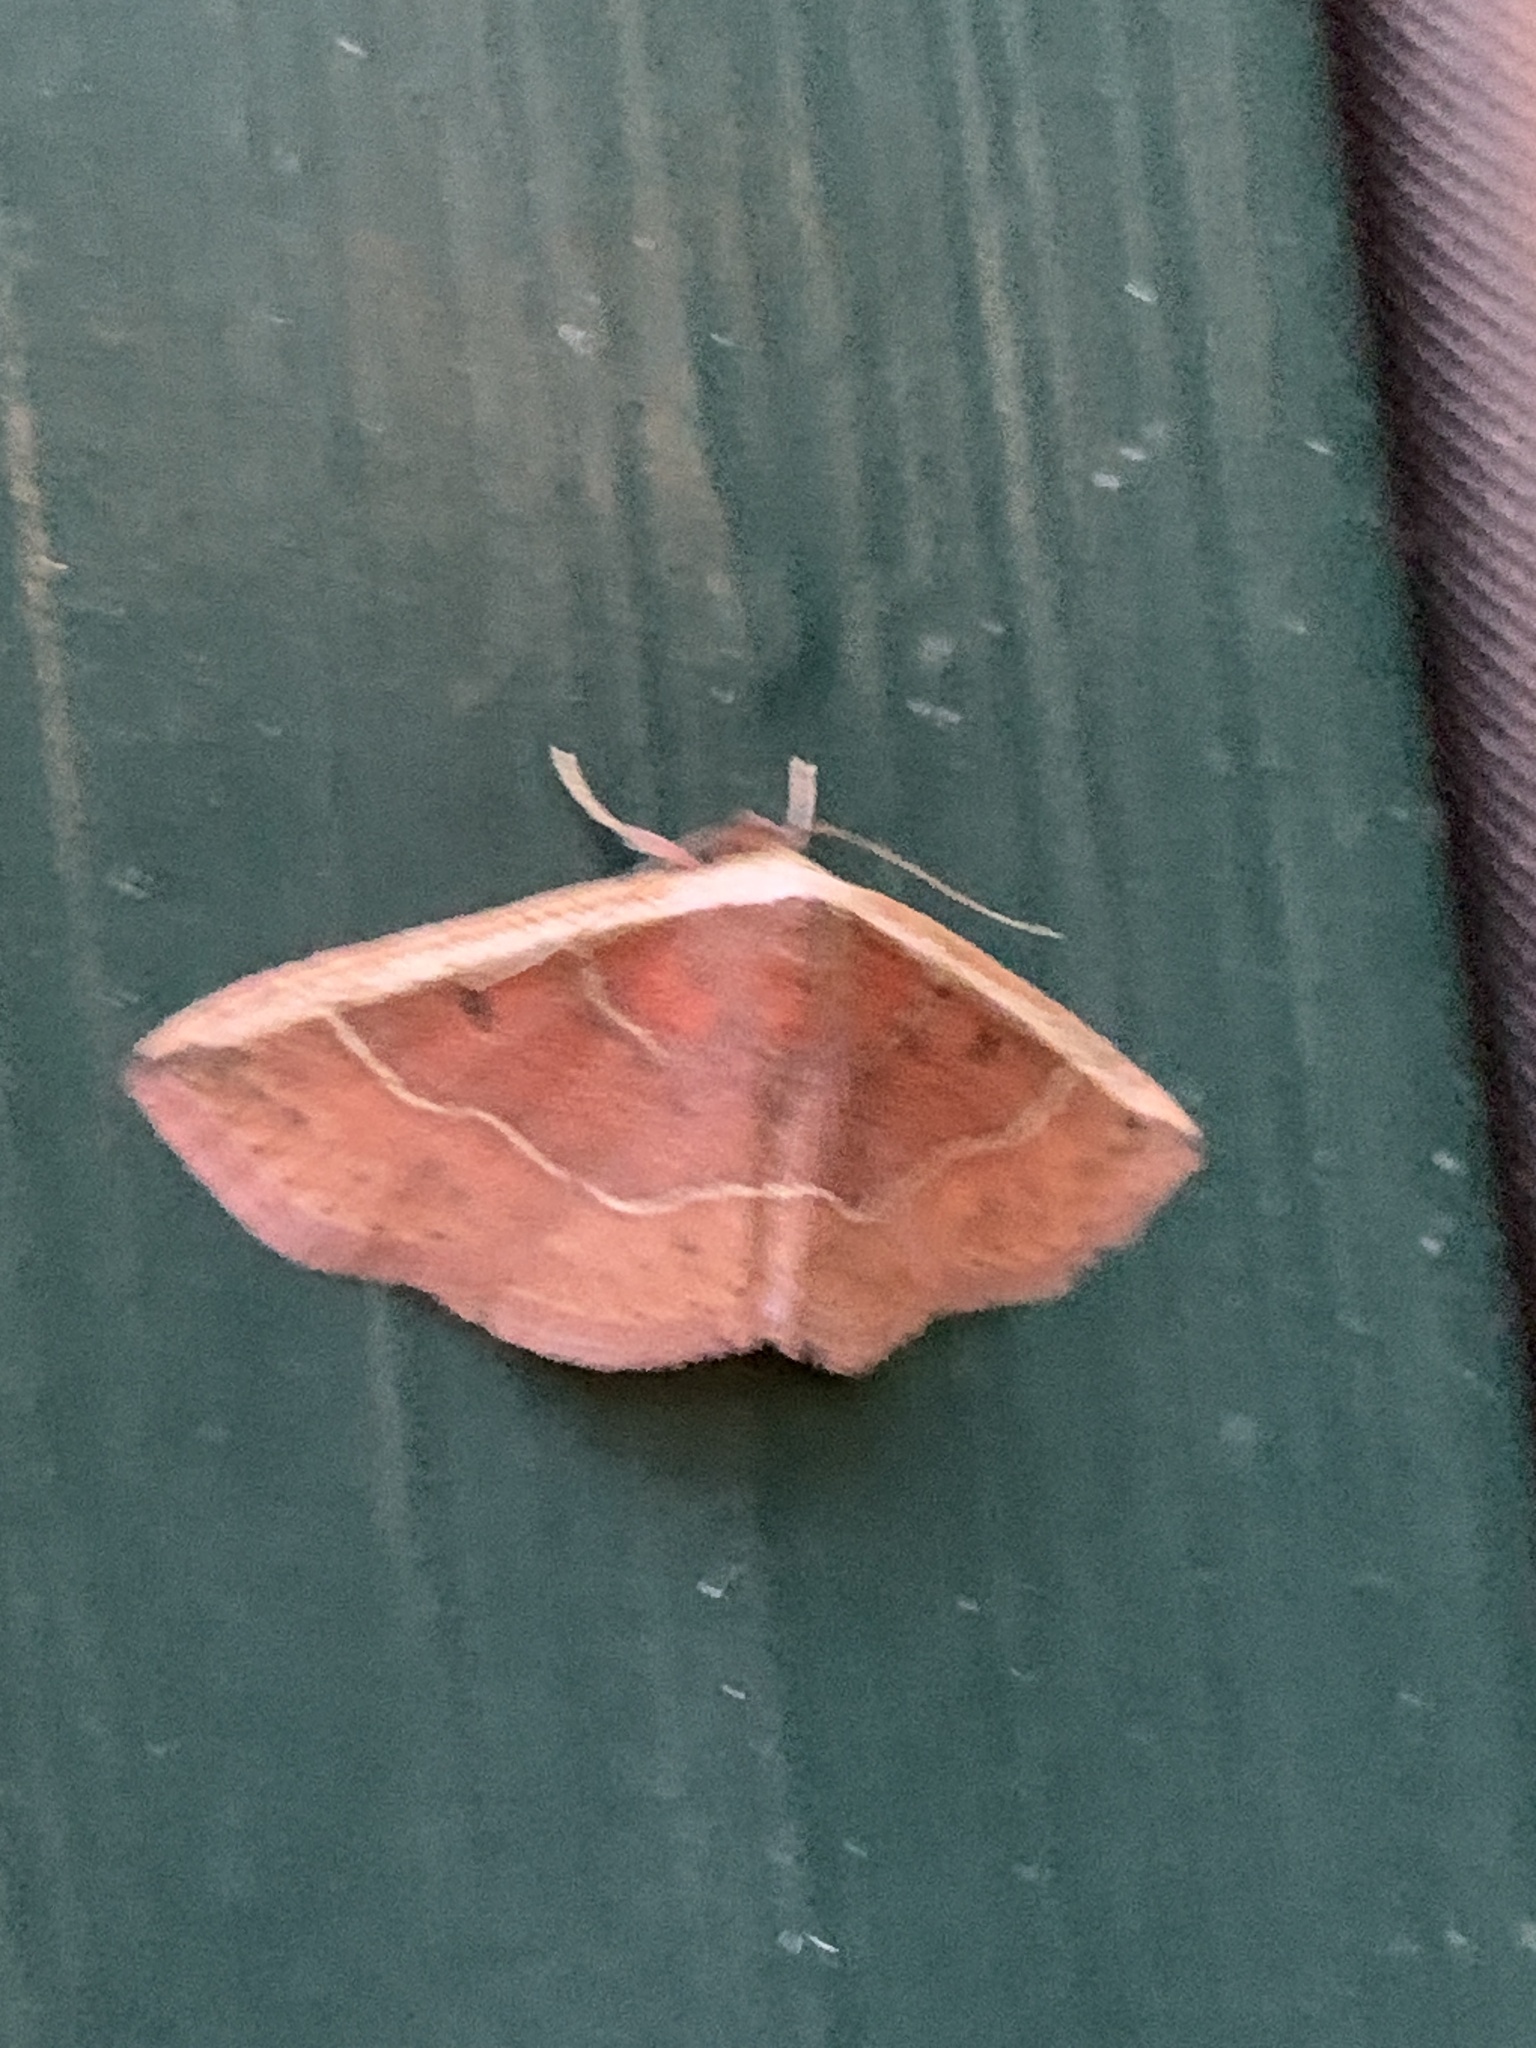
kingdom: Animalia
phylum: Arthropoda
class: Insecta
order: Lepidoptera
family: Noctuidae
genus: Ozarba
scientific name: Ozarba albocostaliata
